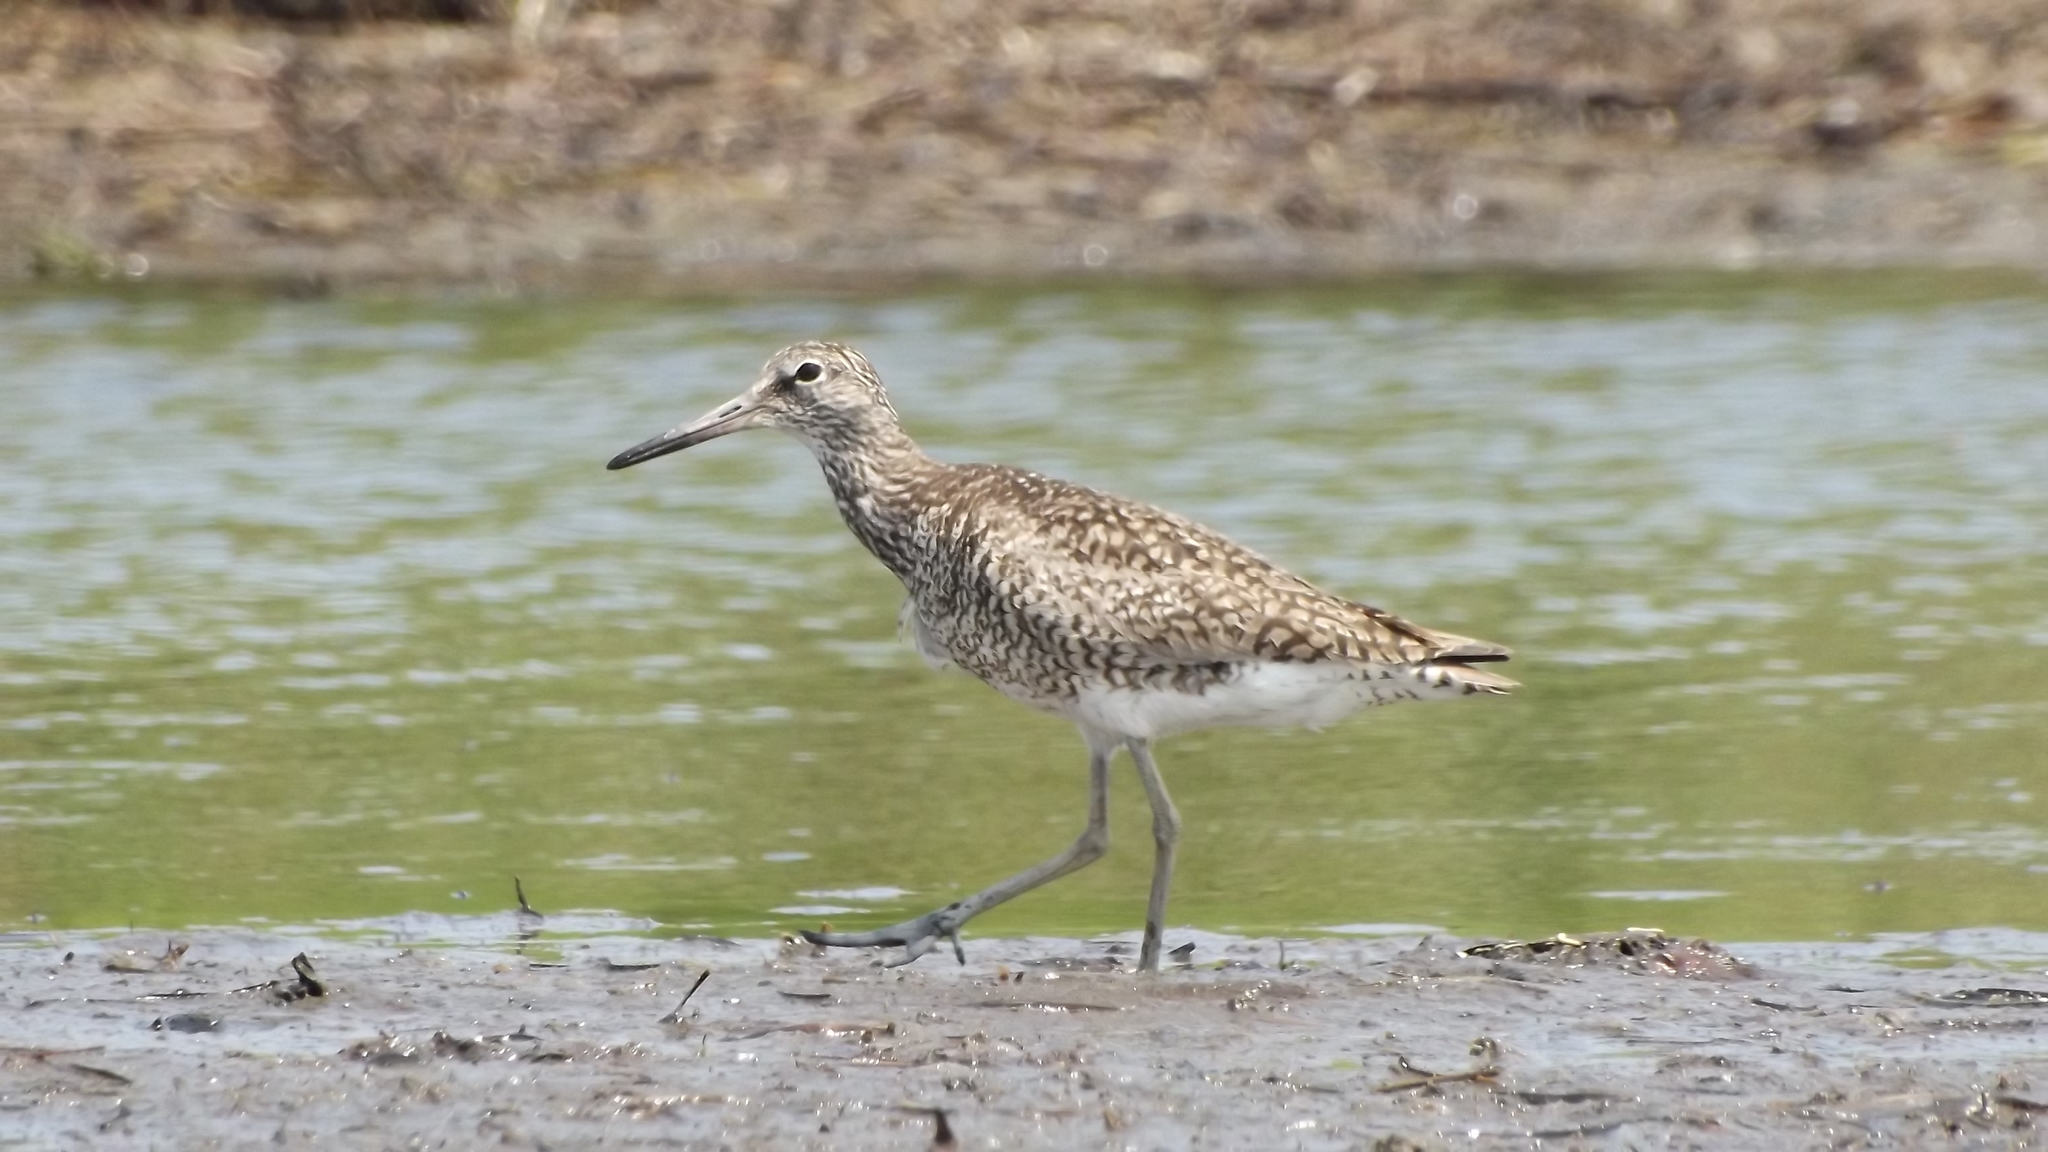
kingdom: Animalia
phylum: Chordata
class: Aves
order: Charadriiformes
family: Scolopacidae
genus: Tringa
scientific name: Tringa semipalmata
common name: Willet
